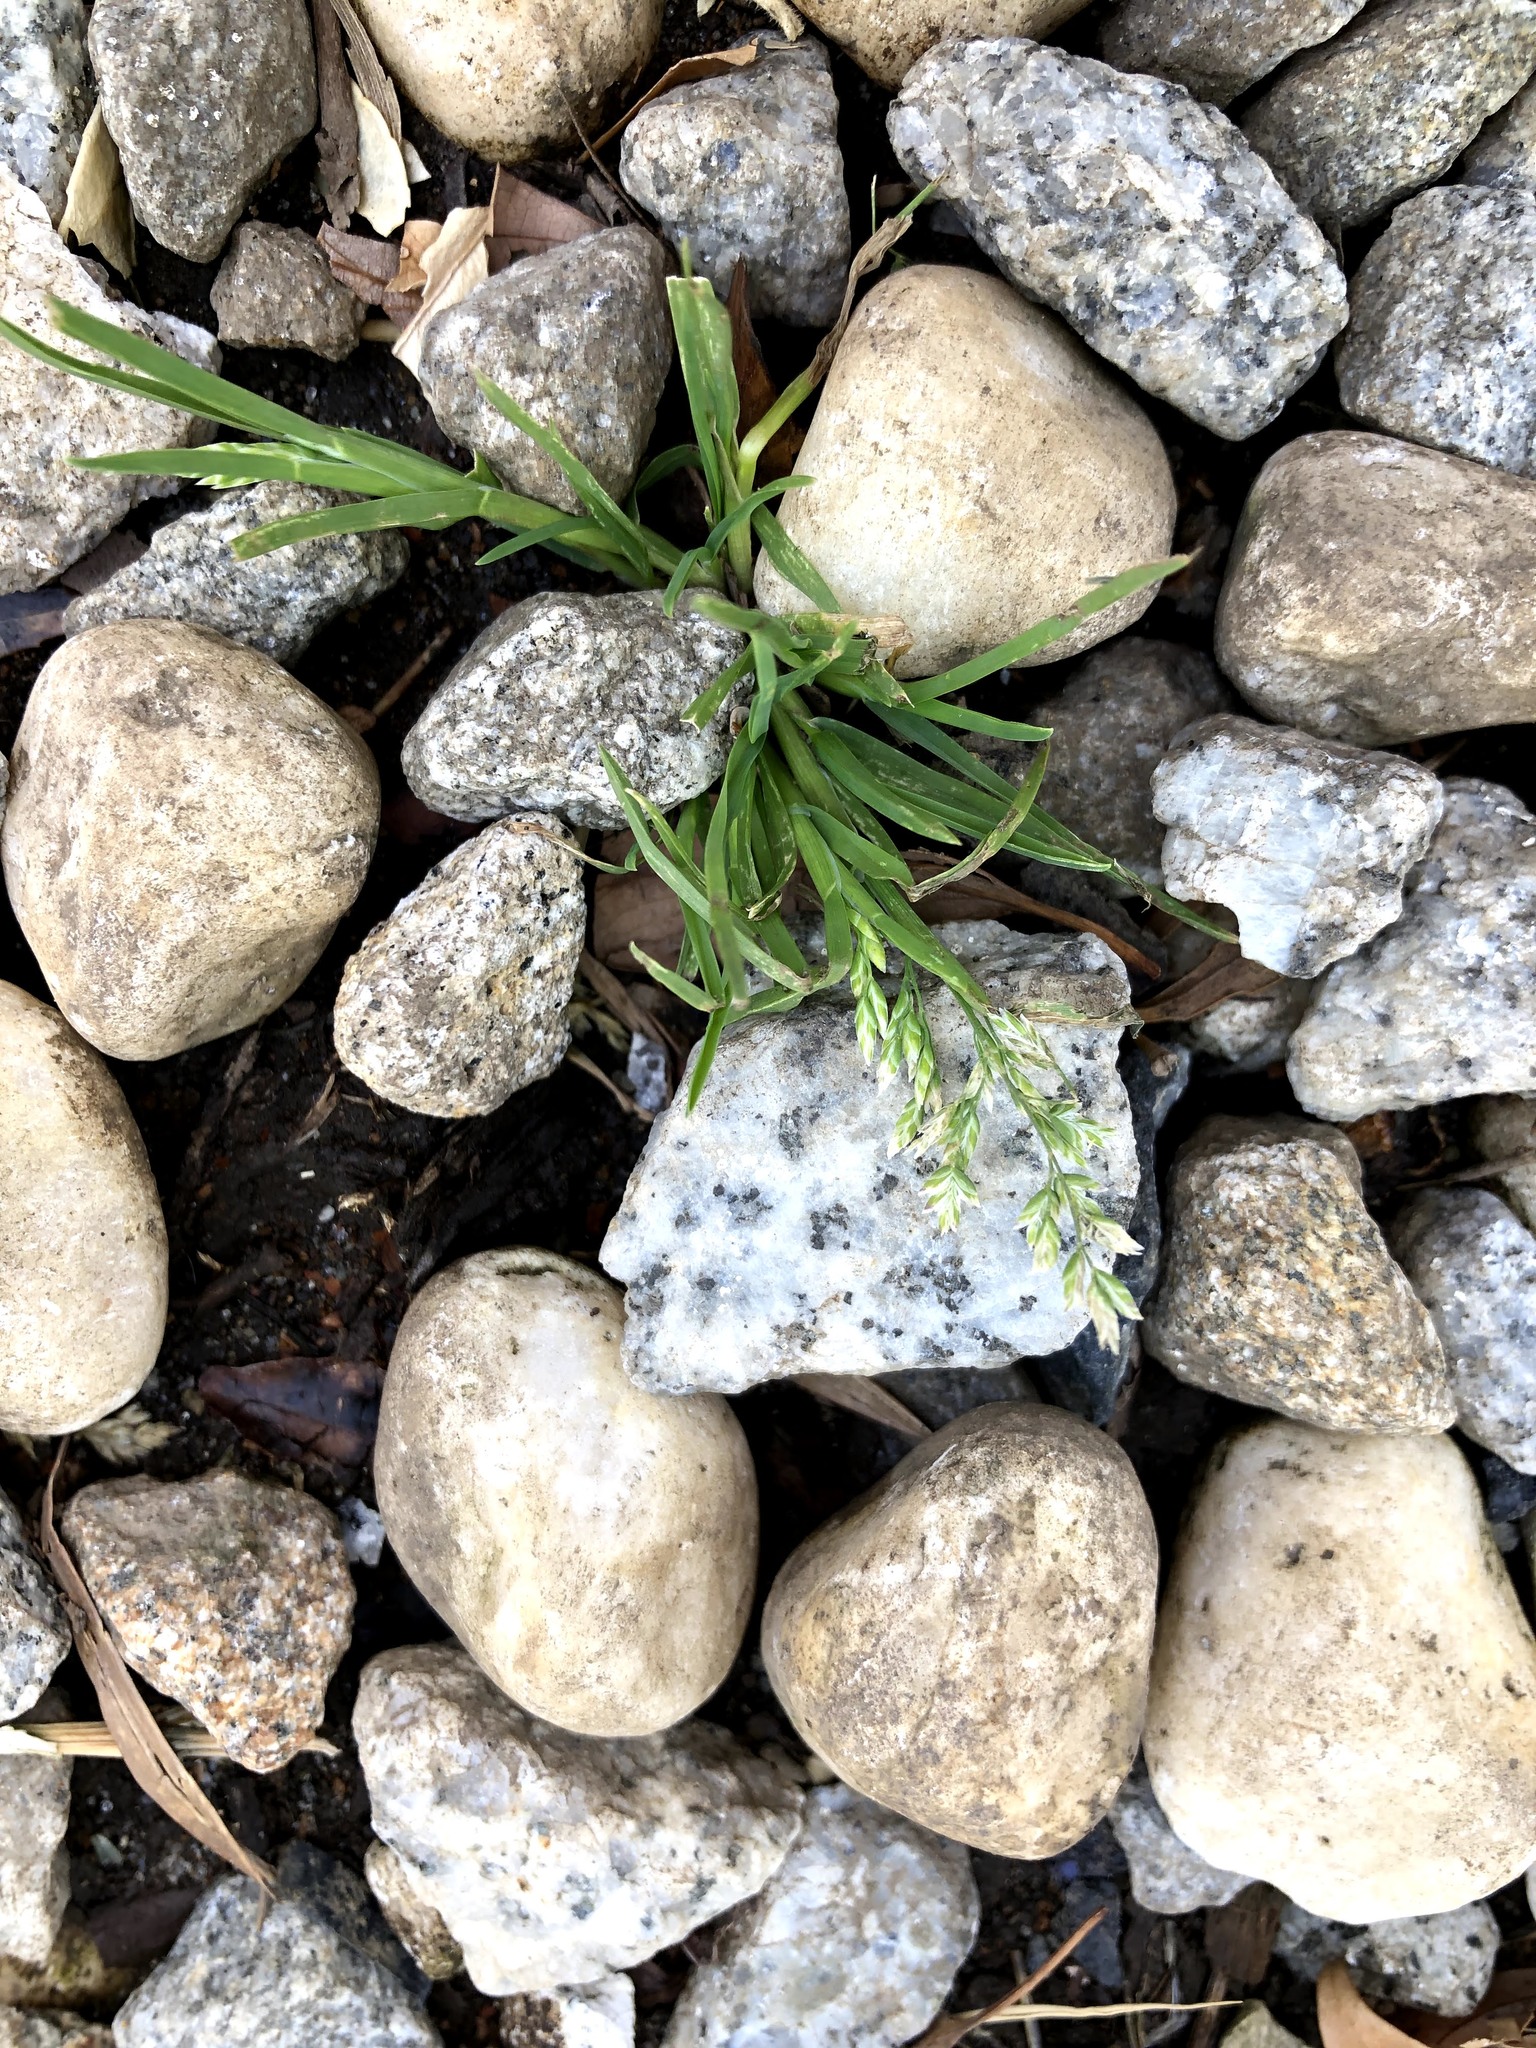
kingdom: Plantae
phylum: Tracheophyta
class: Liliopsida
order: Poales
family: Poaceae
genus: Poa
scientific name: Poa annua
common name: Annual bluegrass
